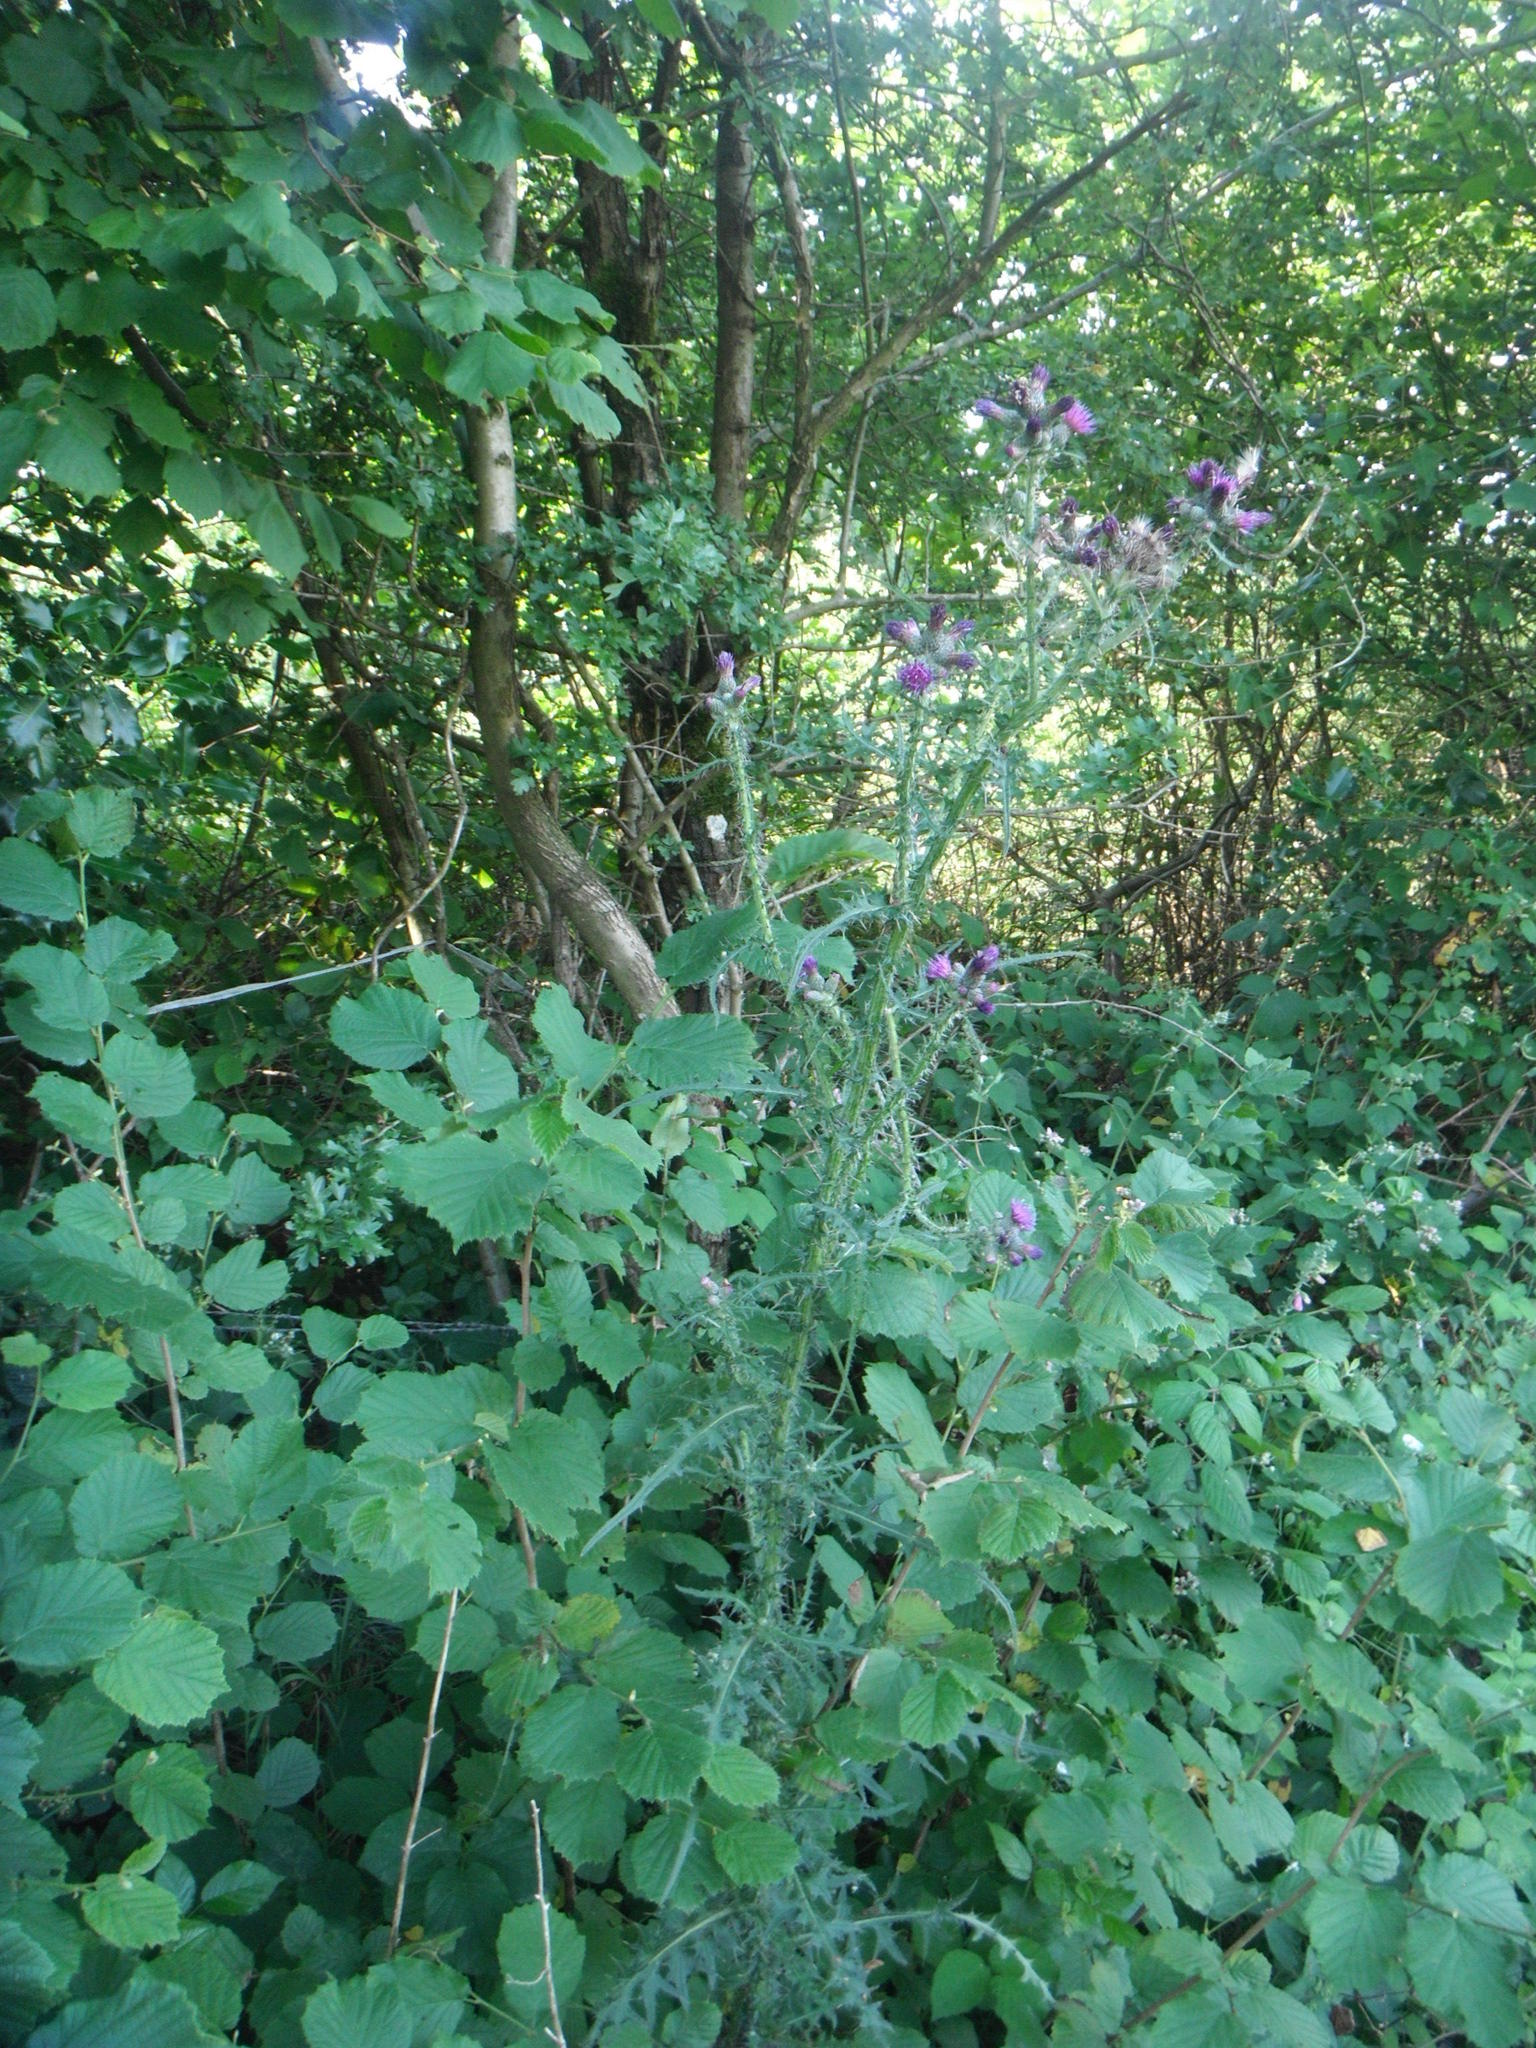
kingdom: Plantae
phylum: Tracheophyta
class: Magnoliopsida
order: Asterales
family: Asteraceae
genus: Cirsium
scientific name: Cirsium palustre
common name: Marsh thistle
